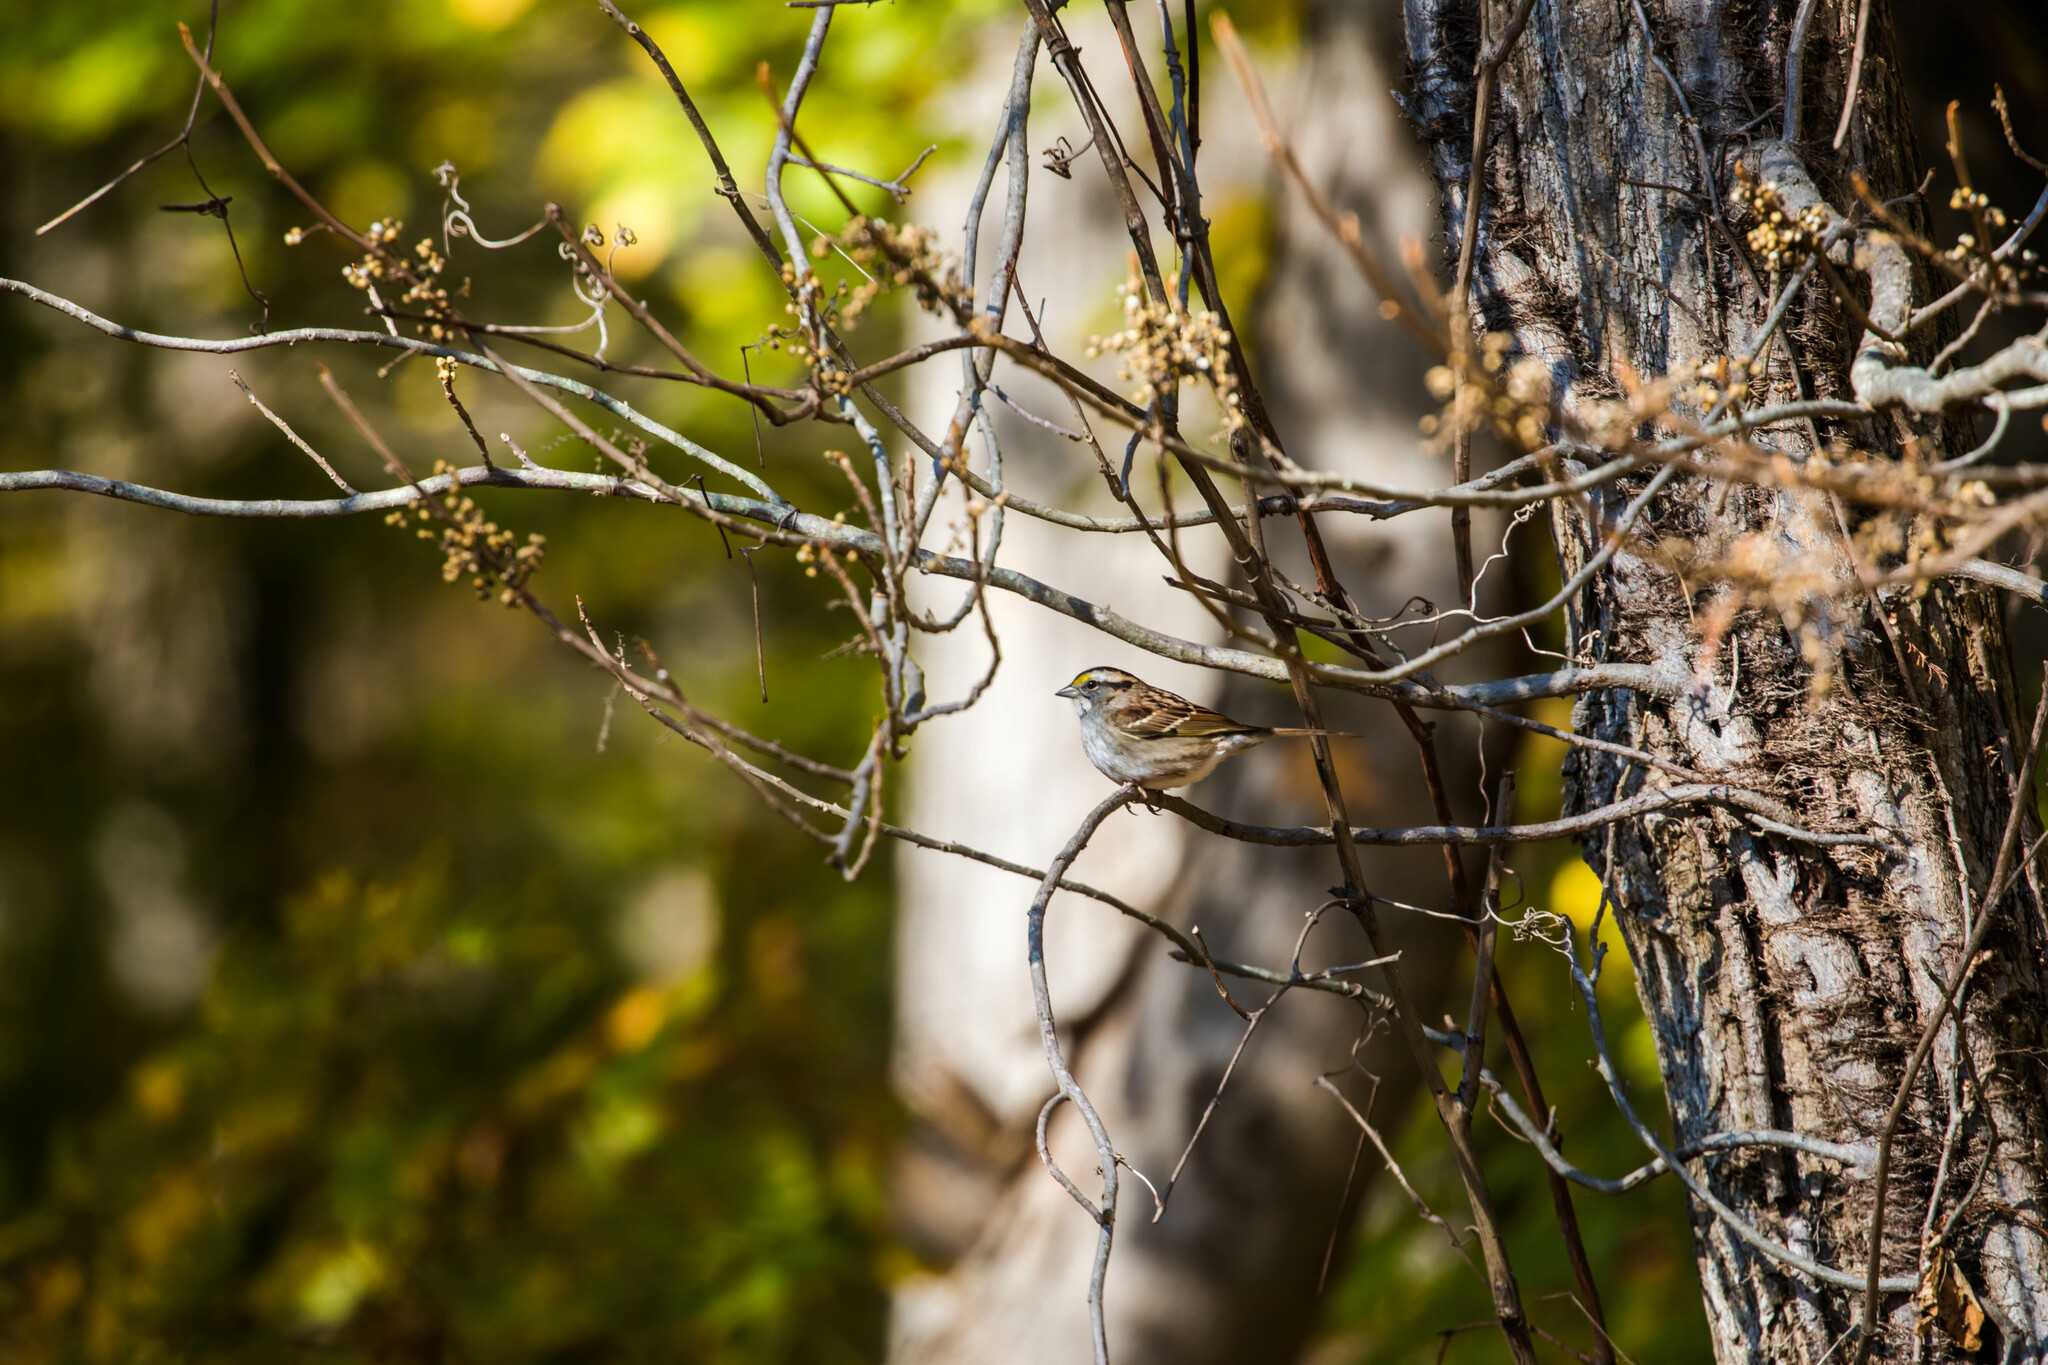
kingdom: Animalia
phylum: Chordata
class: Aves
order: Passeriformes
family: Passerellidae
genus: Zonotrichia
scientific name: Zonotrichia albicollis
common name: White-throated sparrow
